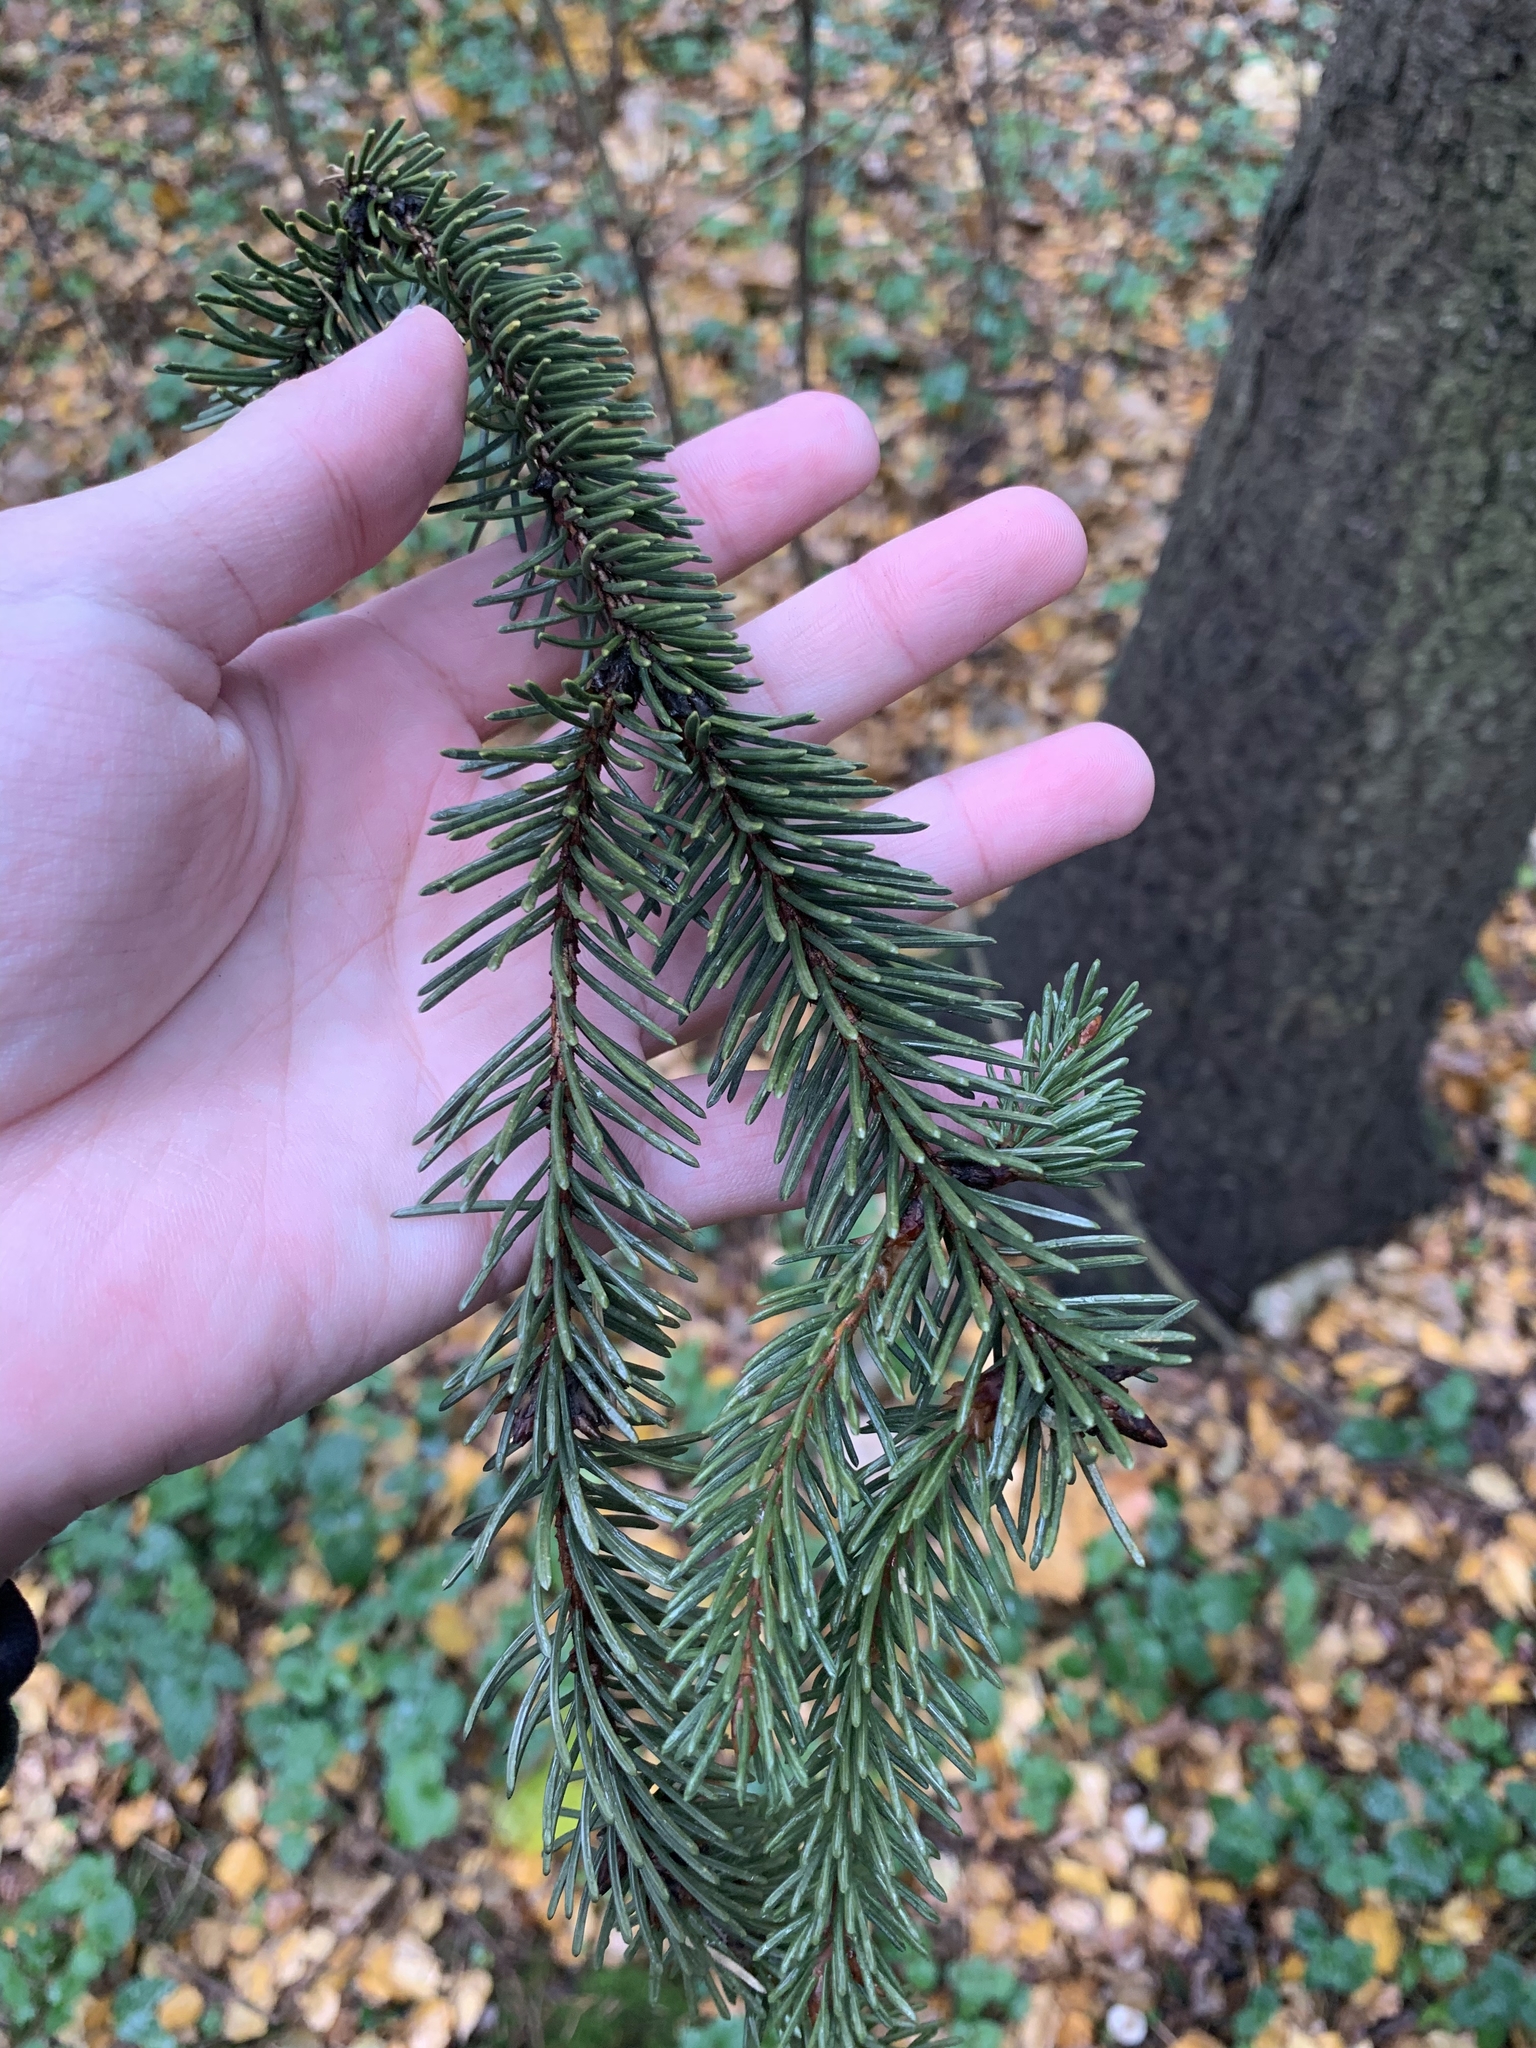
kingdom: Plantae
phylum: Tracheophyta
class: Pinopsida
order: Pinales
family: Pinaceae
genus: Picea
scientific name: Picea abies
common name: Norway spruce
